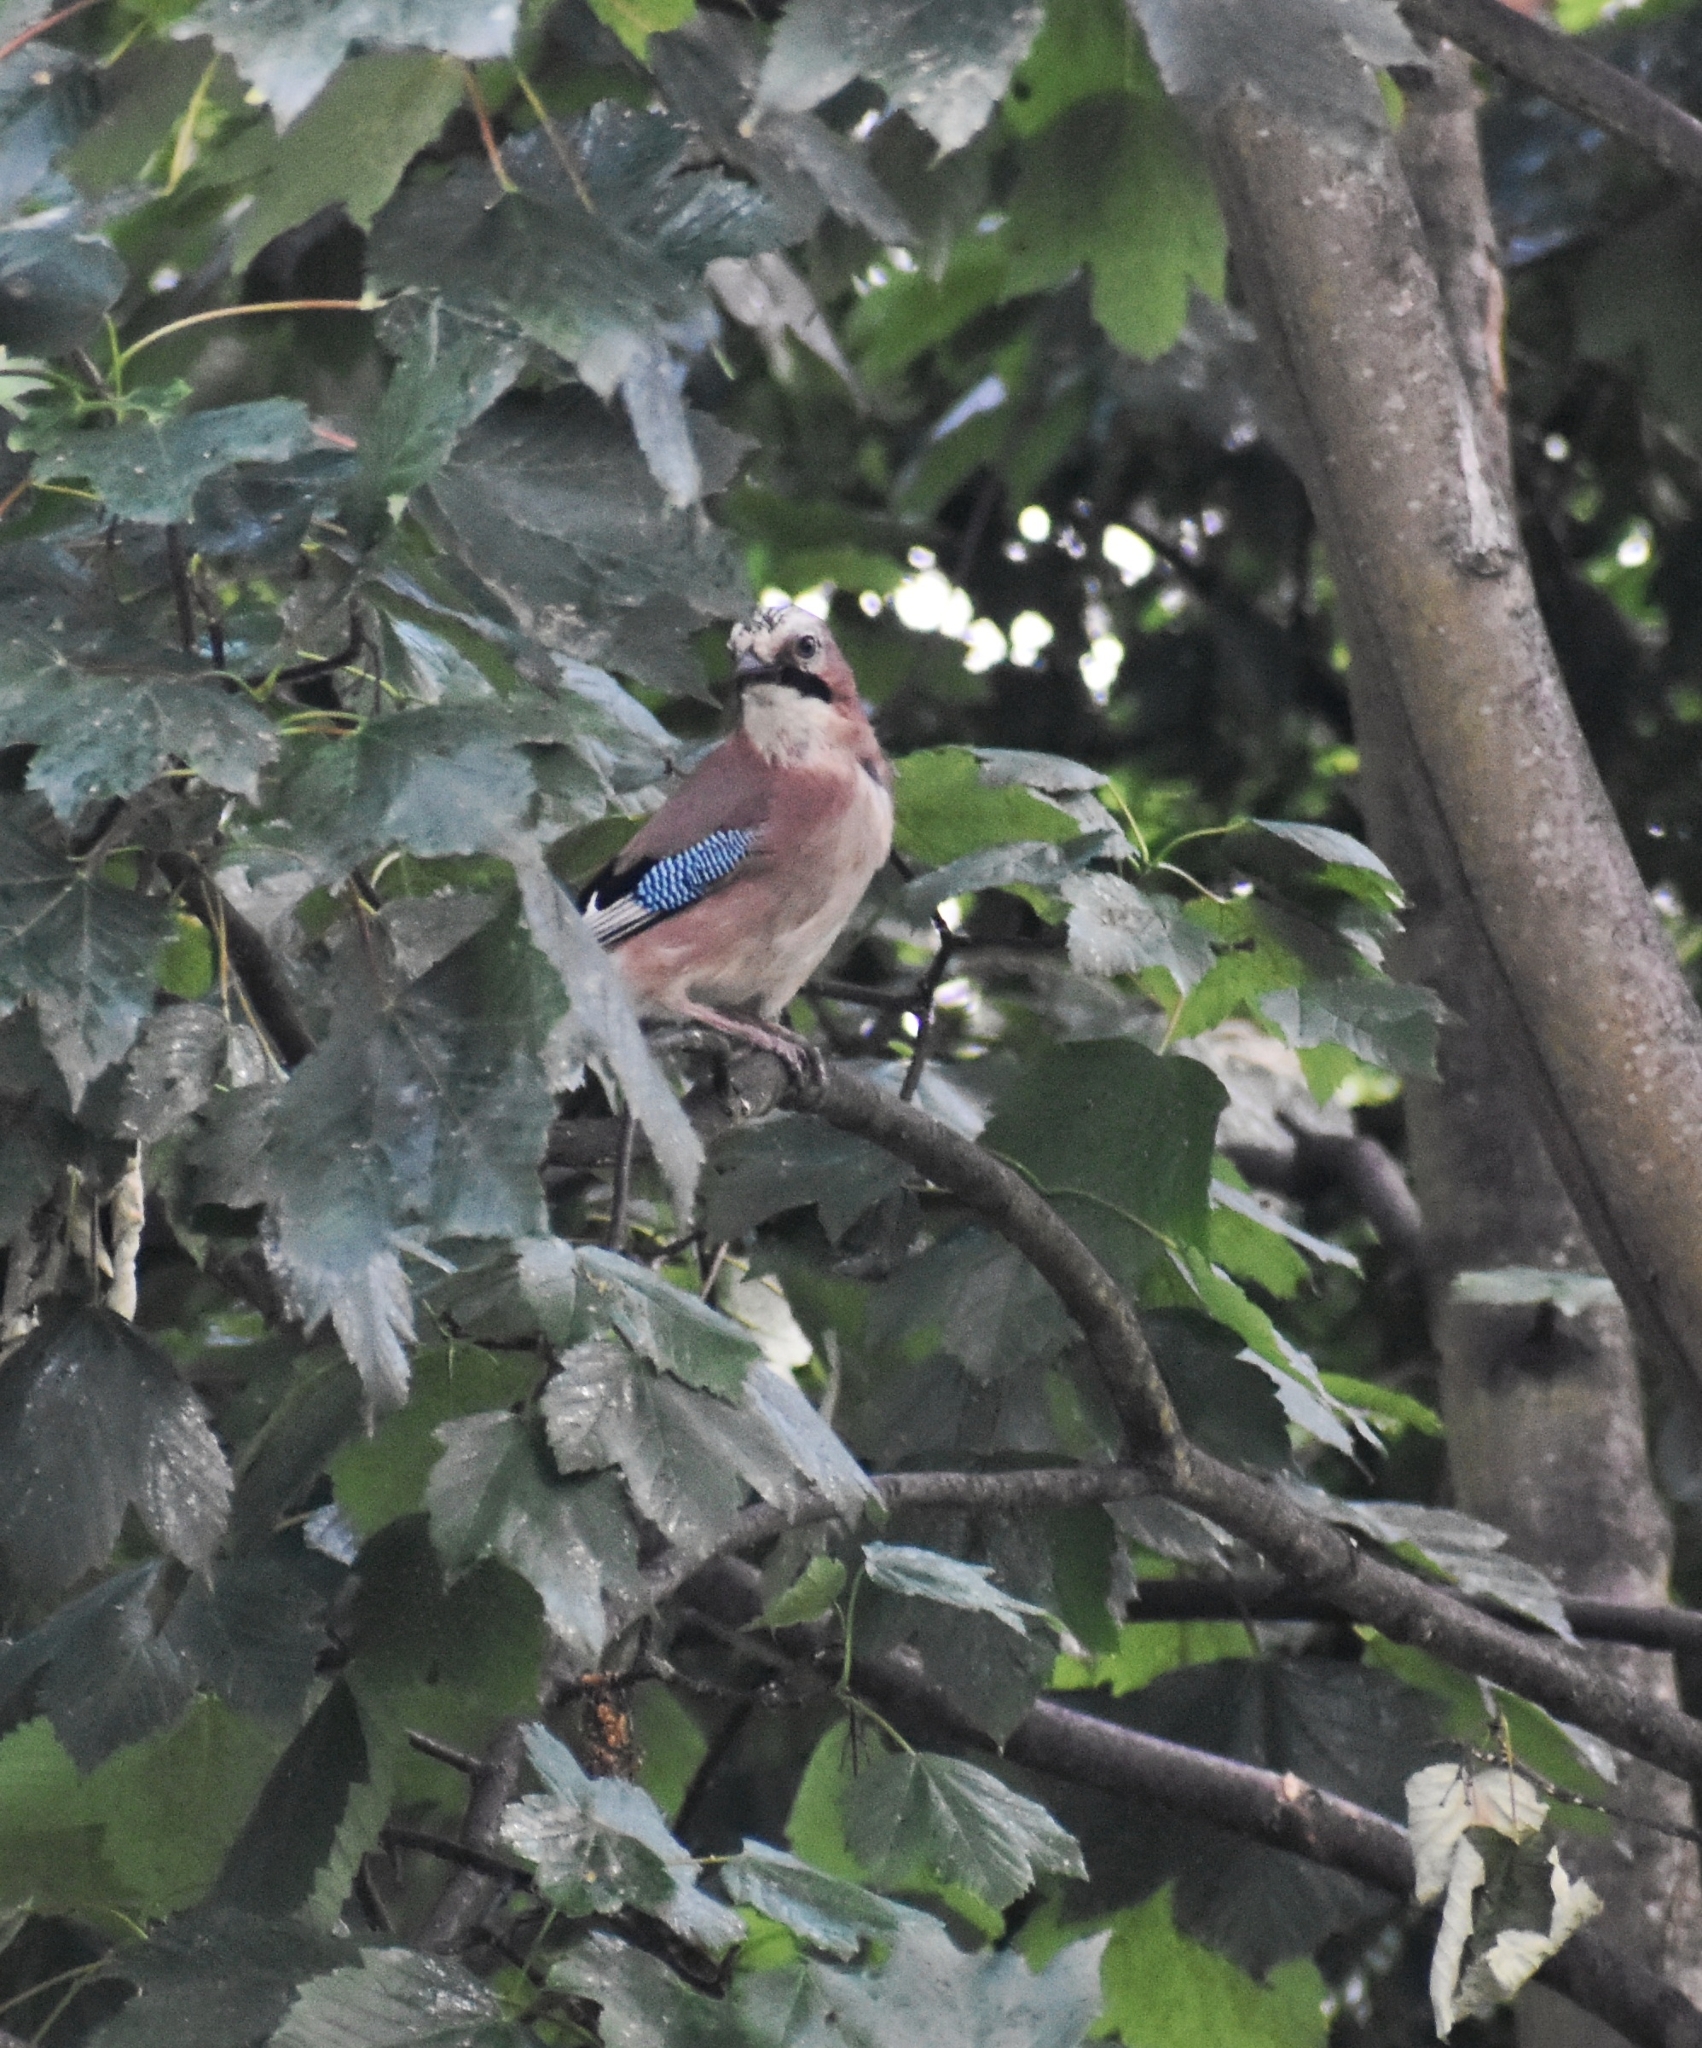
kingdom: Animalia
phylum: Chordata
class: Aves
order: Passeriformes
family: Corvidae
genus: Garrulus
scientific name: Garrulus glandarius
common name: Eurasian jay
